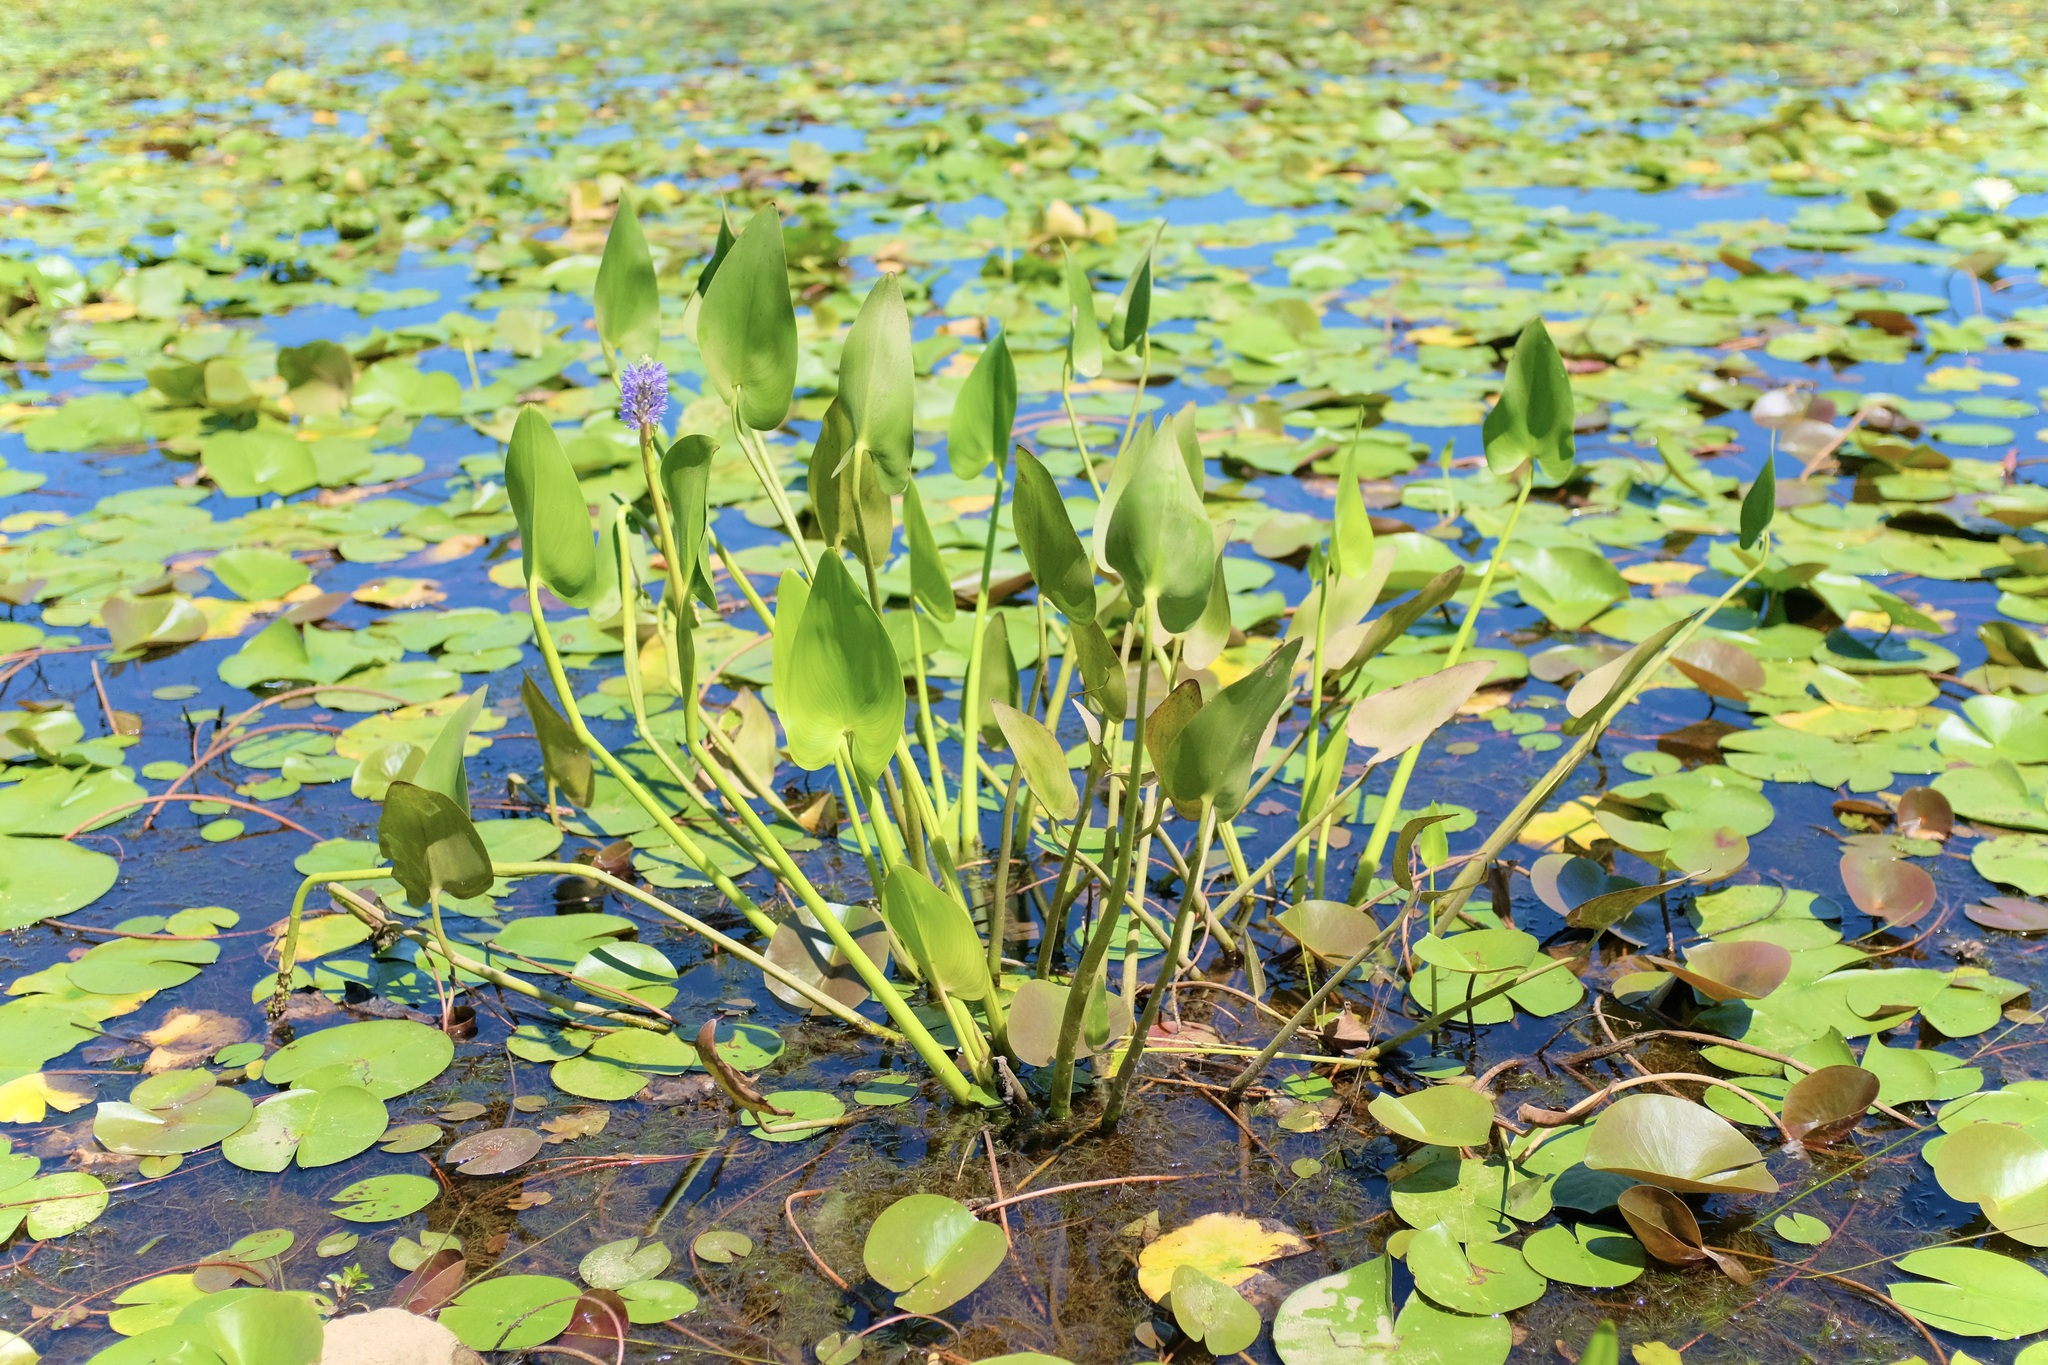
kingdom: Plantae
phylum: Tracheophyta
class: Liliopsida
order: Commelinales
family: Pontederiaceae
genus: Pontederia
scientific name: Pontederia cordata
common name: Pickerelweed
